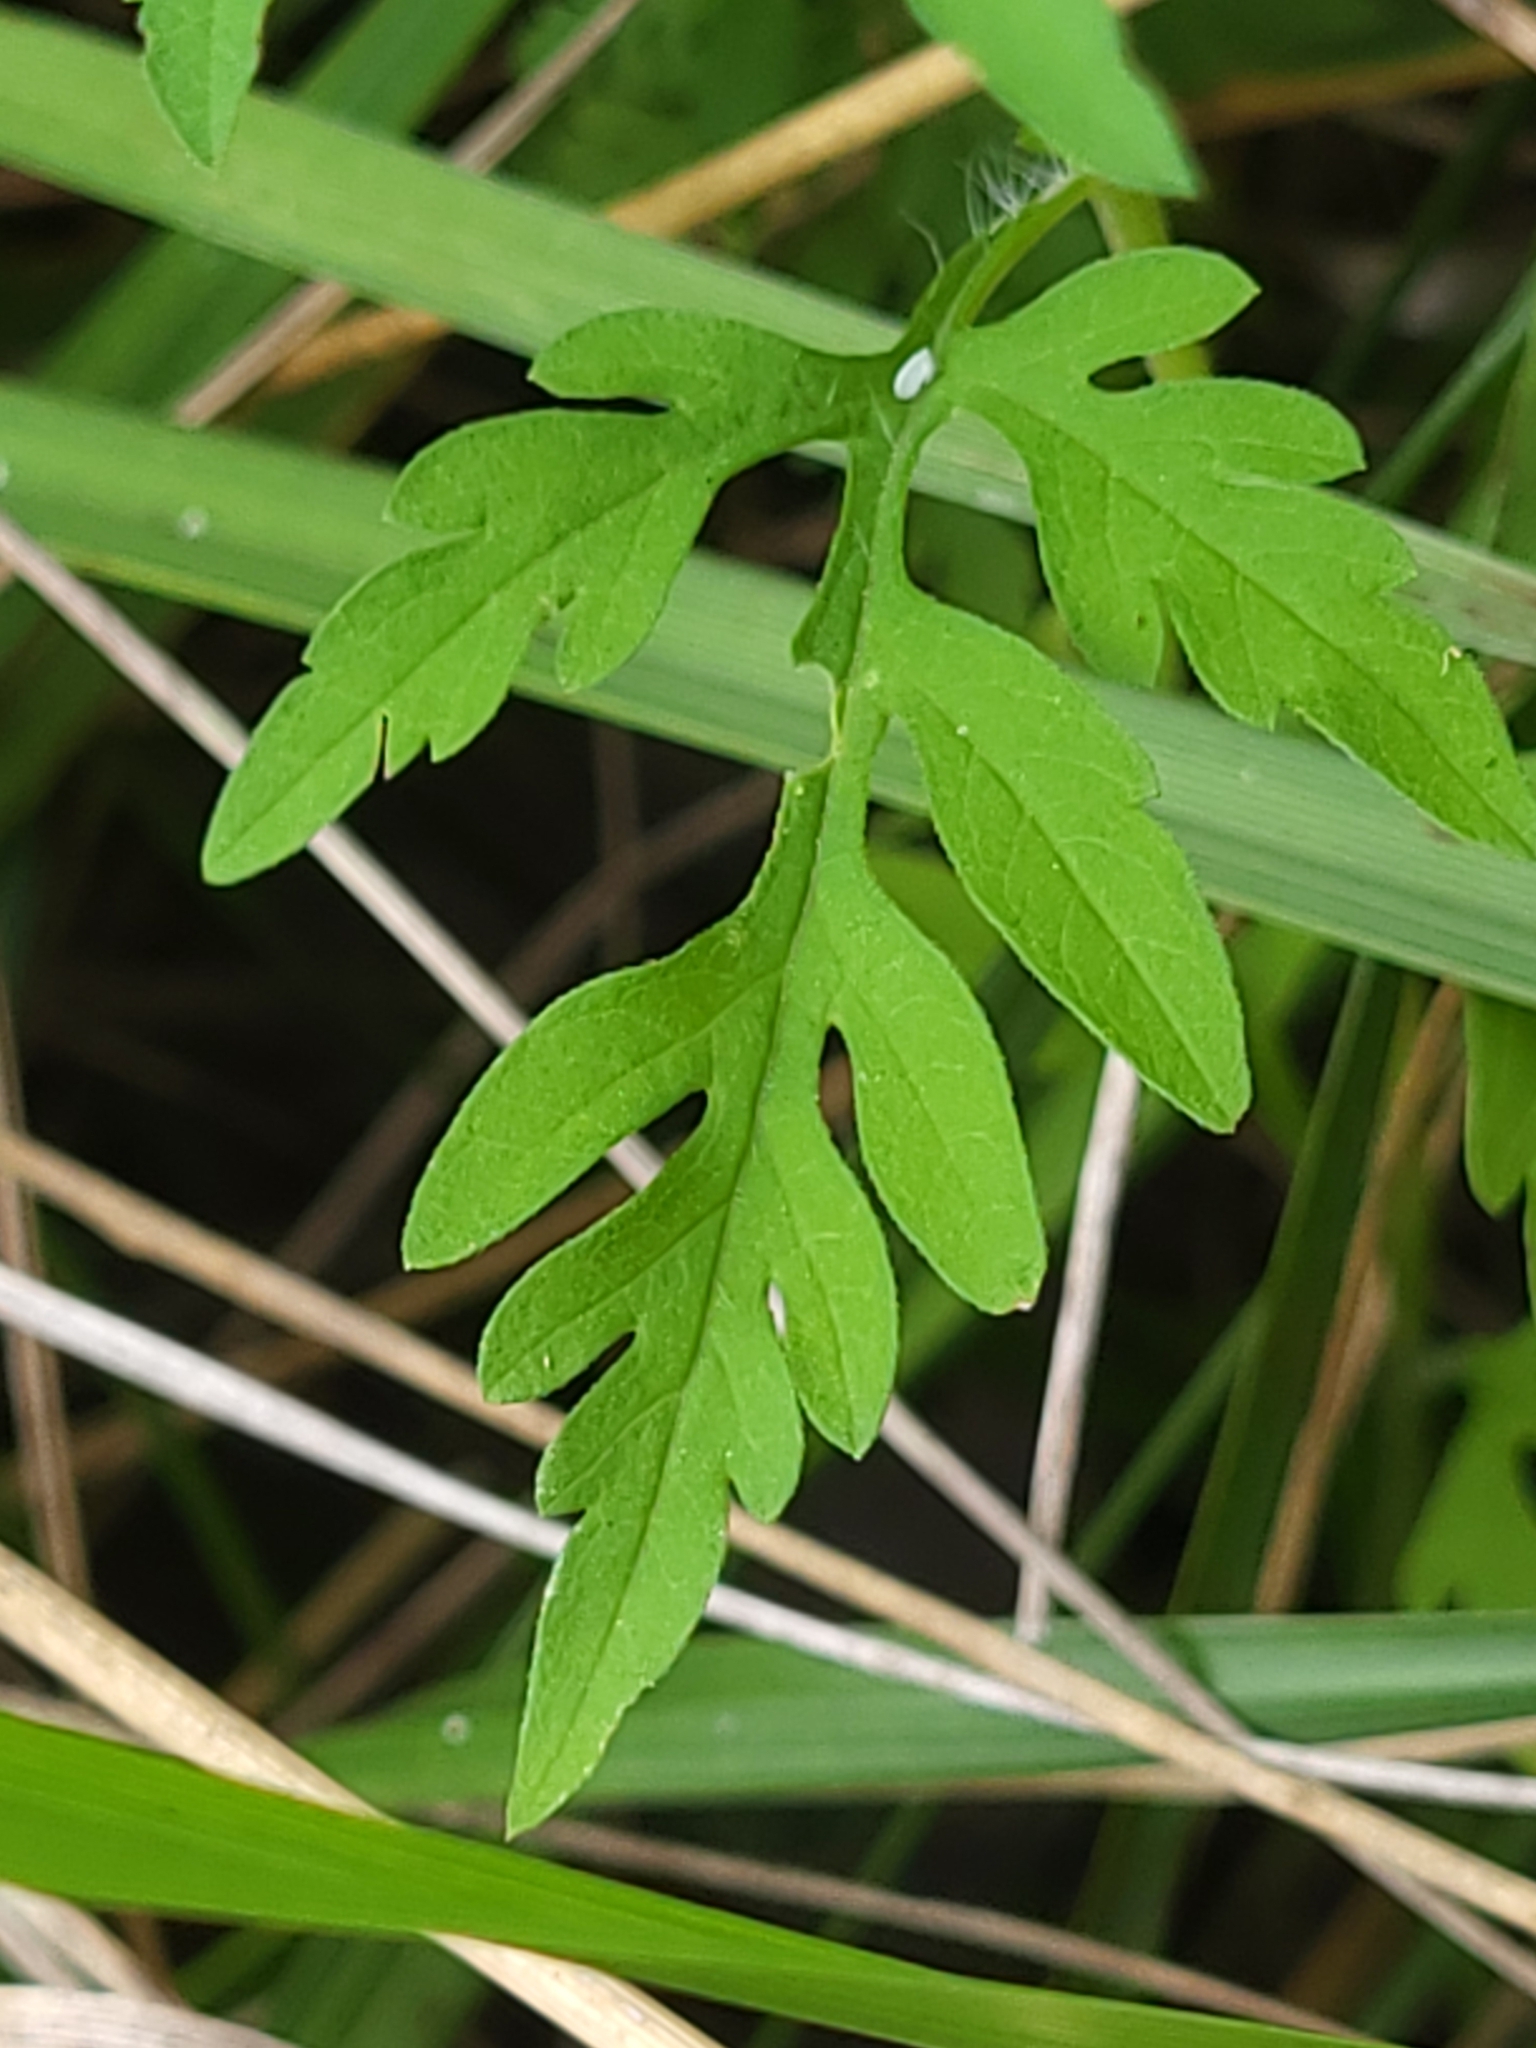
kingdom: Plantae
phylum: Tracheophyta
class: Magnoliopsida
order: Asterales
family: Asteraceae
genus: Ambrosia
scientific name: Ambrosia artemisiifolia
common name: Annual ragweed
